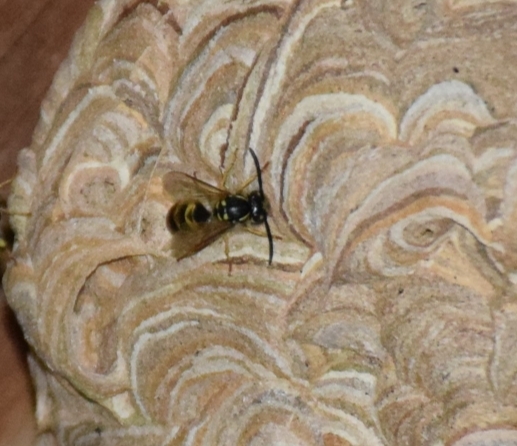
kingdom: Animalia
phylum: Arthropoda
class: Insecta
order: Hymenoptera
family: Vespidae
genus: Vespula
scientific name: Vespula vulgaris
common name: Common wasp
